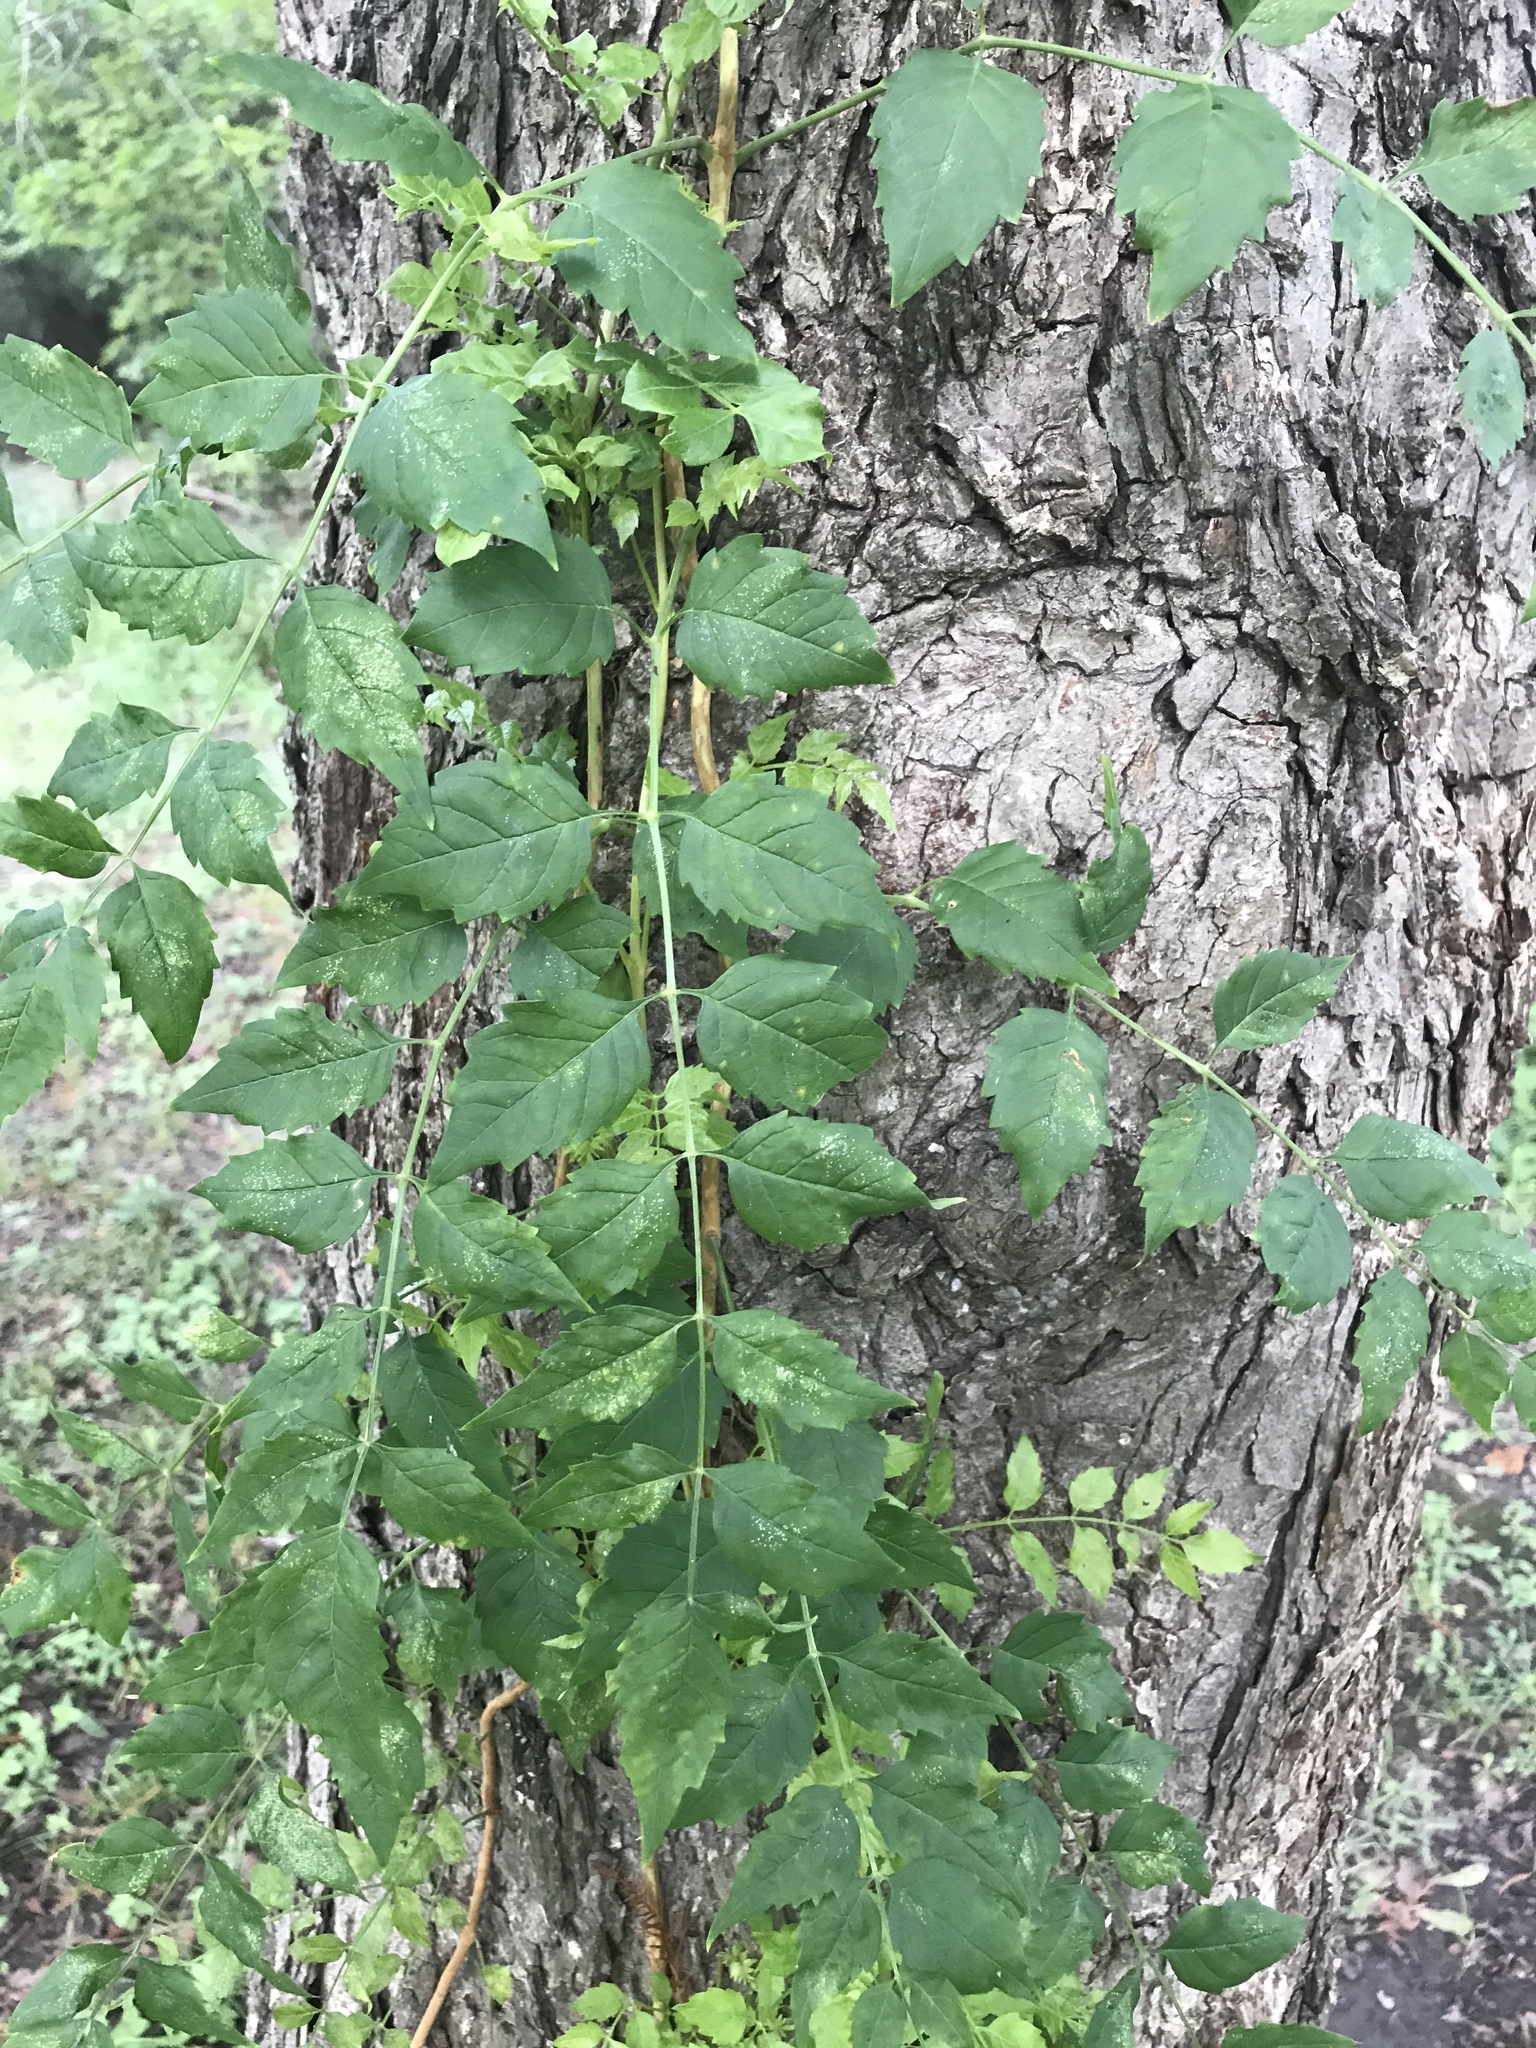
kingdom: Plantae
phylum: Tracheophyta
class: Magnoliopsida
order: Lamiales
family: Bignoniaceae
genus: Campsis
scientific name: Campsis radicans
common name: Trumpet-creeper
